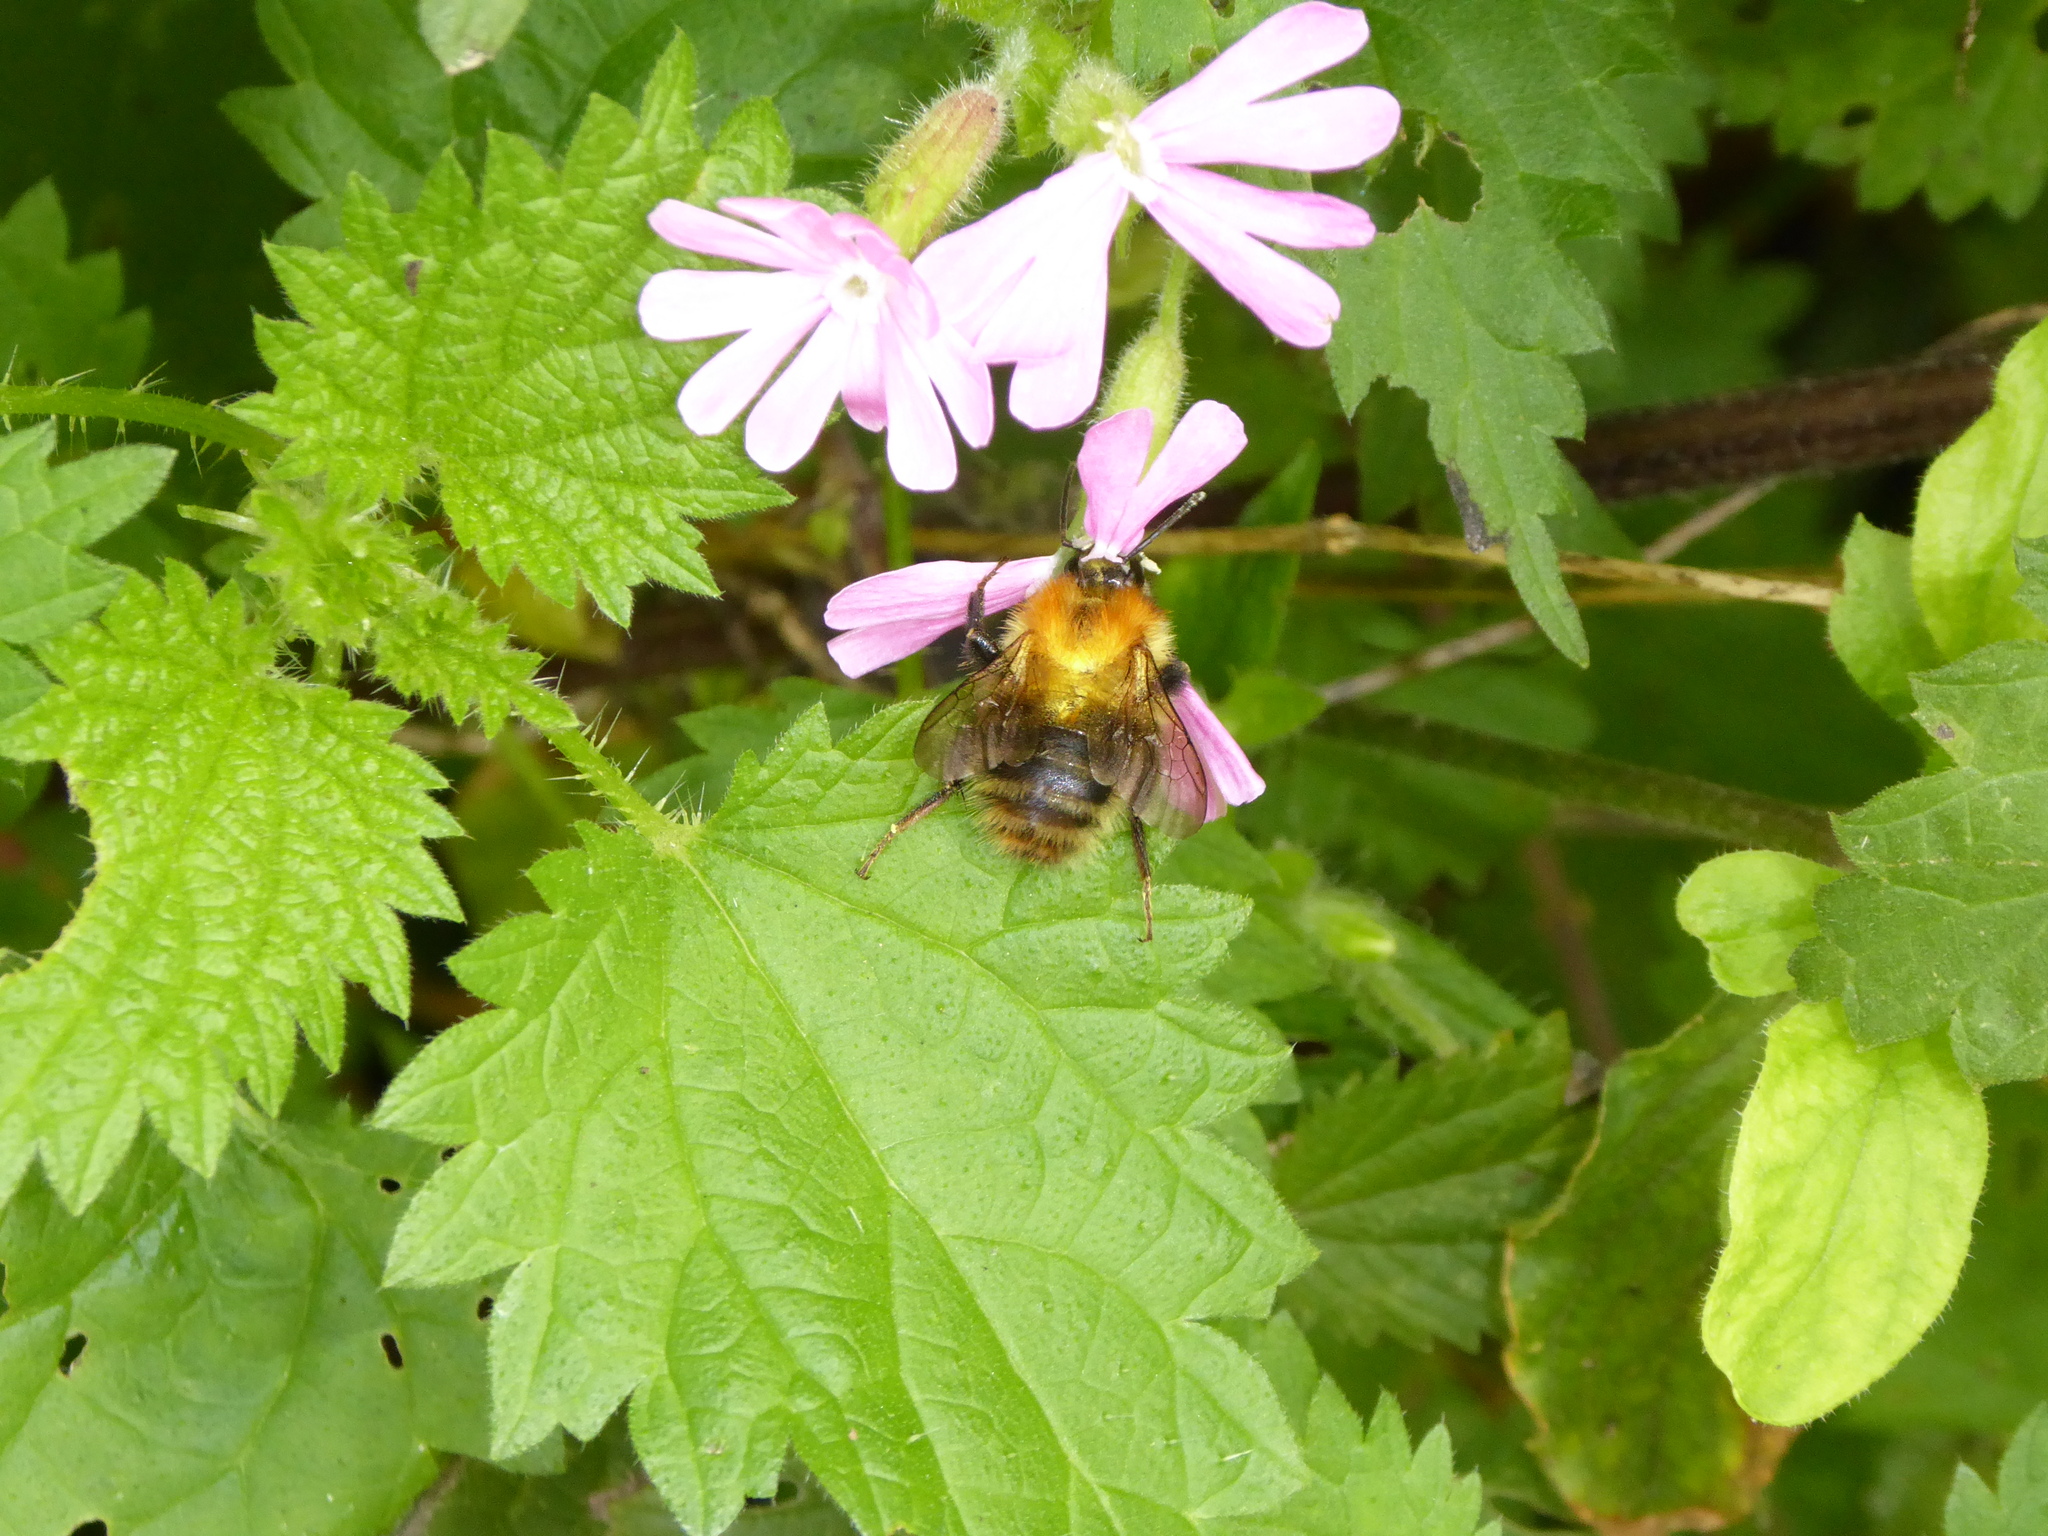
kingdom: Animalia
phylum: Arthropoda
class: Insecta
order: Hymenoptera
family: Apidae
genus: Bombus
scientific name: Bombus pascuorum
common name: Common carder bee
